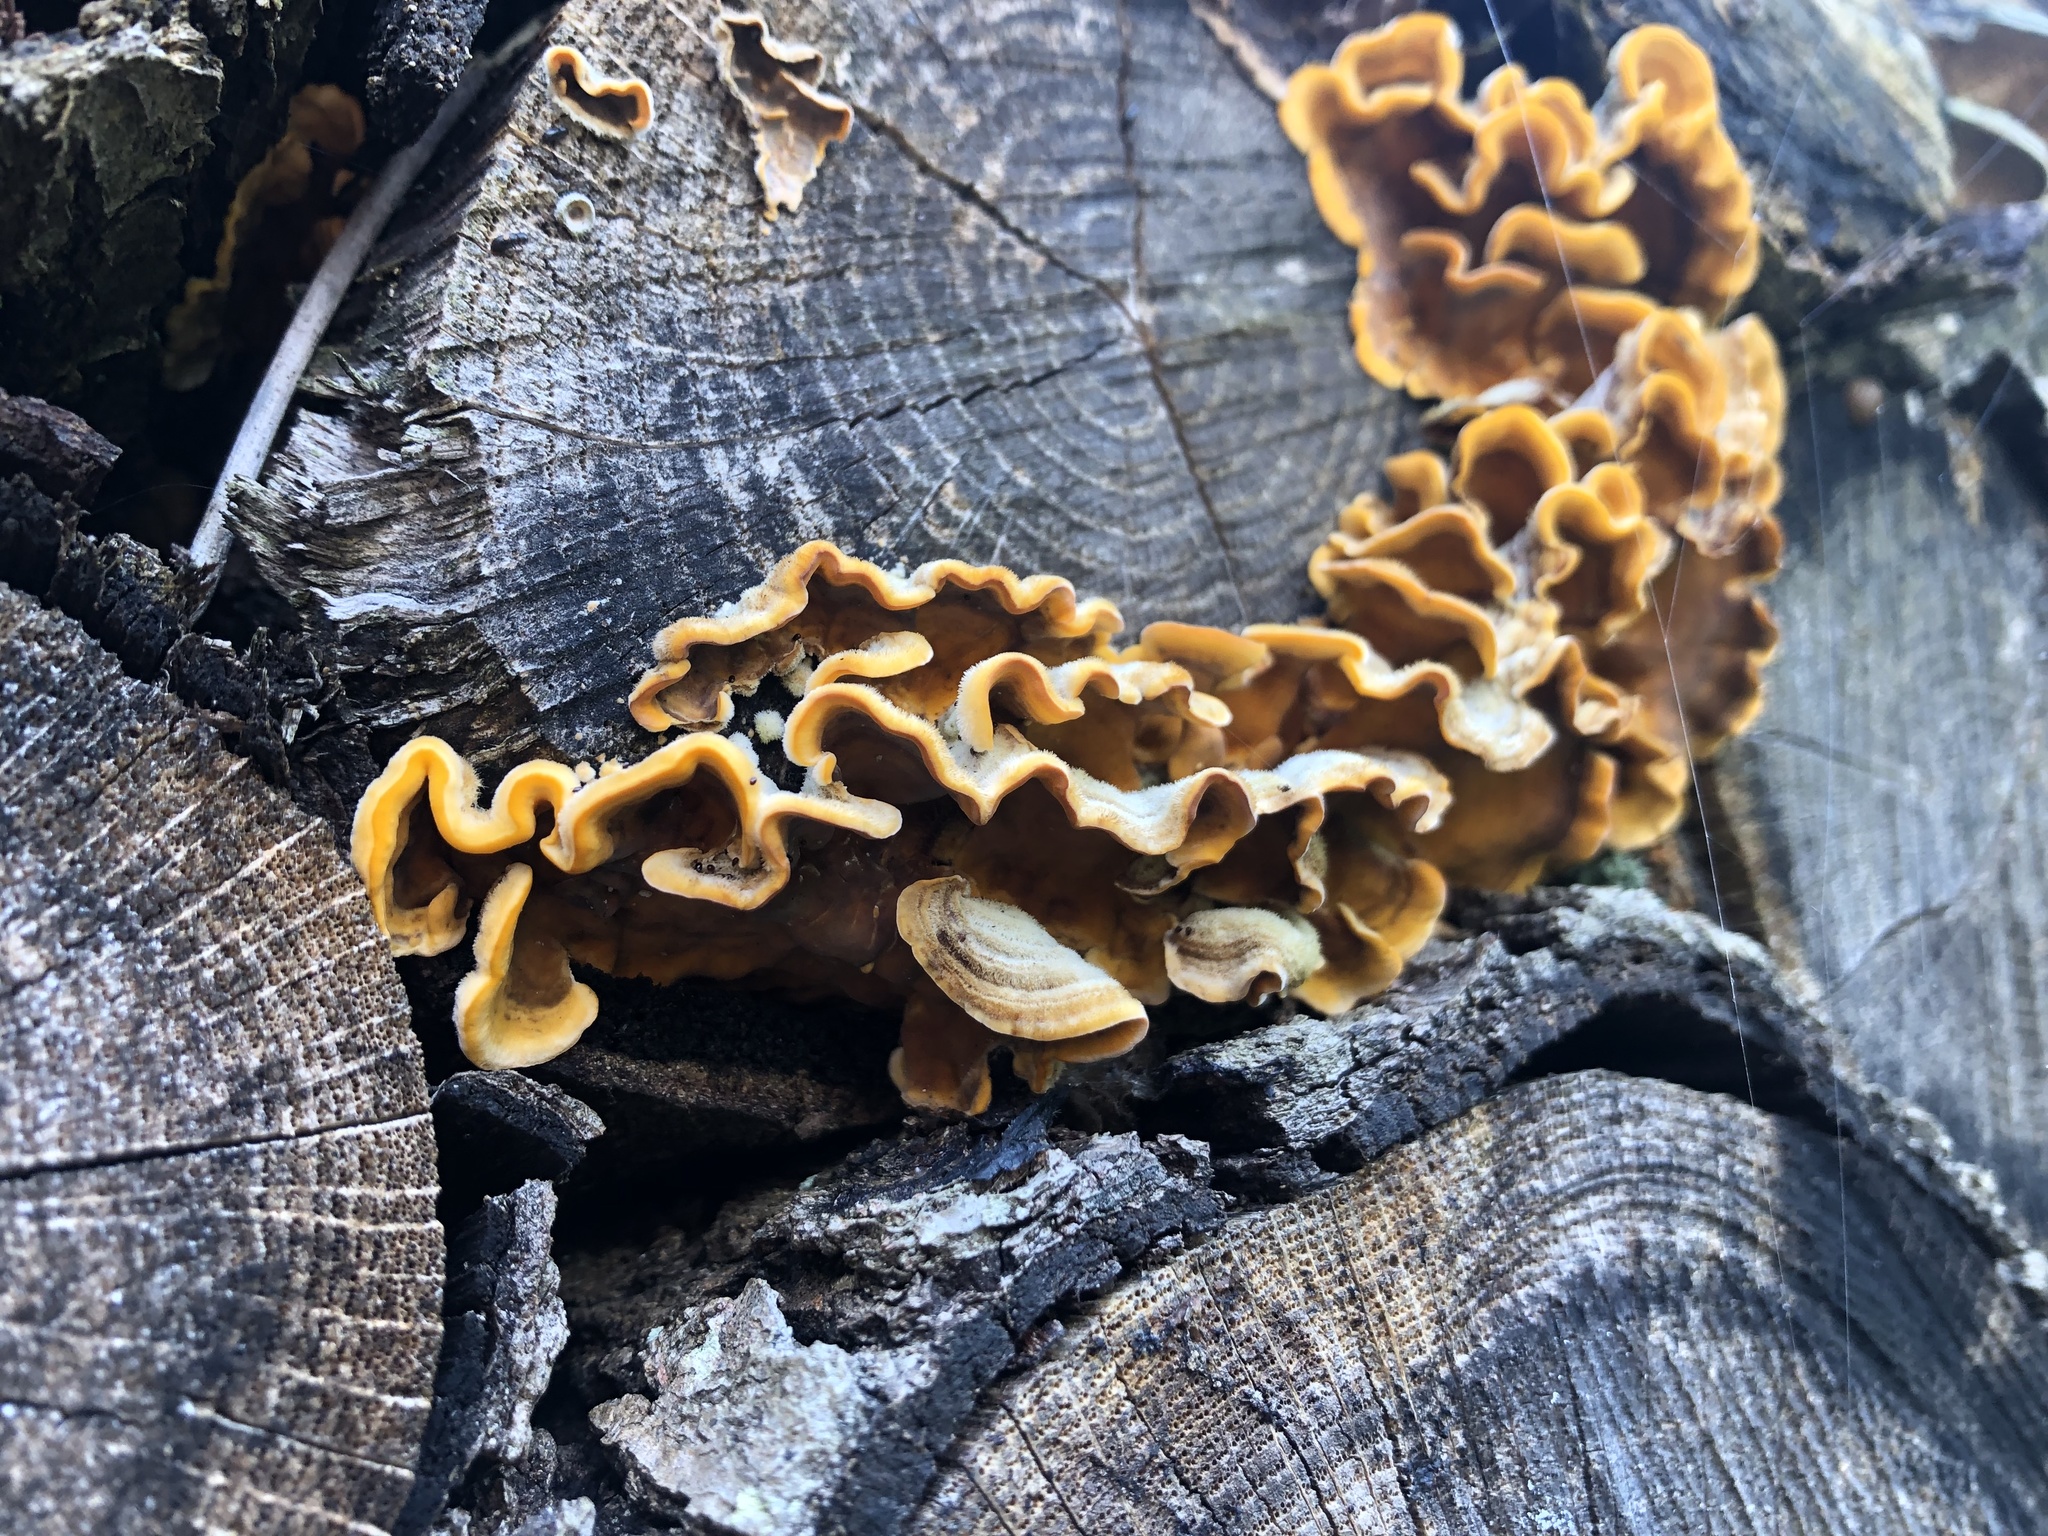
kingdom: Fungi
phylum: Basidiomycota
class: Agaricomycetes
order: Russulales
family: Stereaceae
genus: Stereum
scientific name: Stereum hirsutum
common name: Hairy curtain crust
